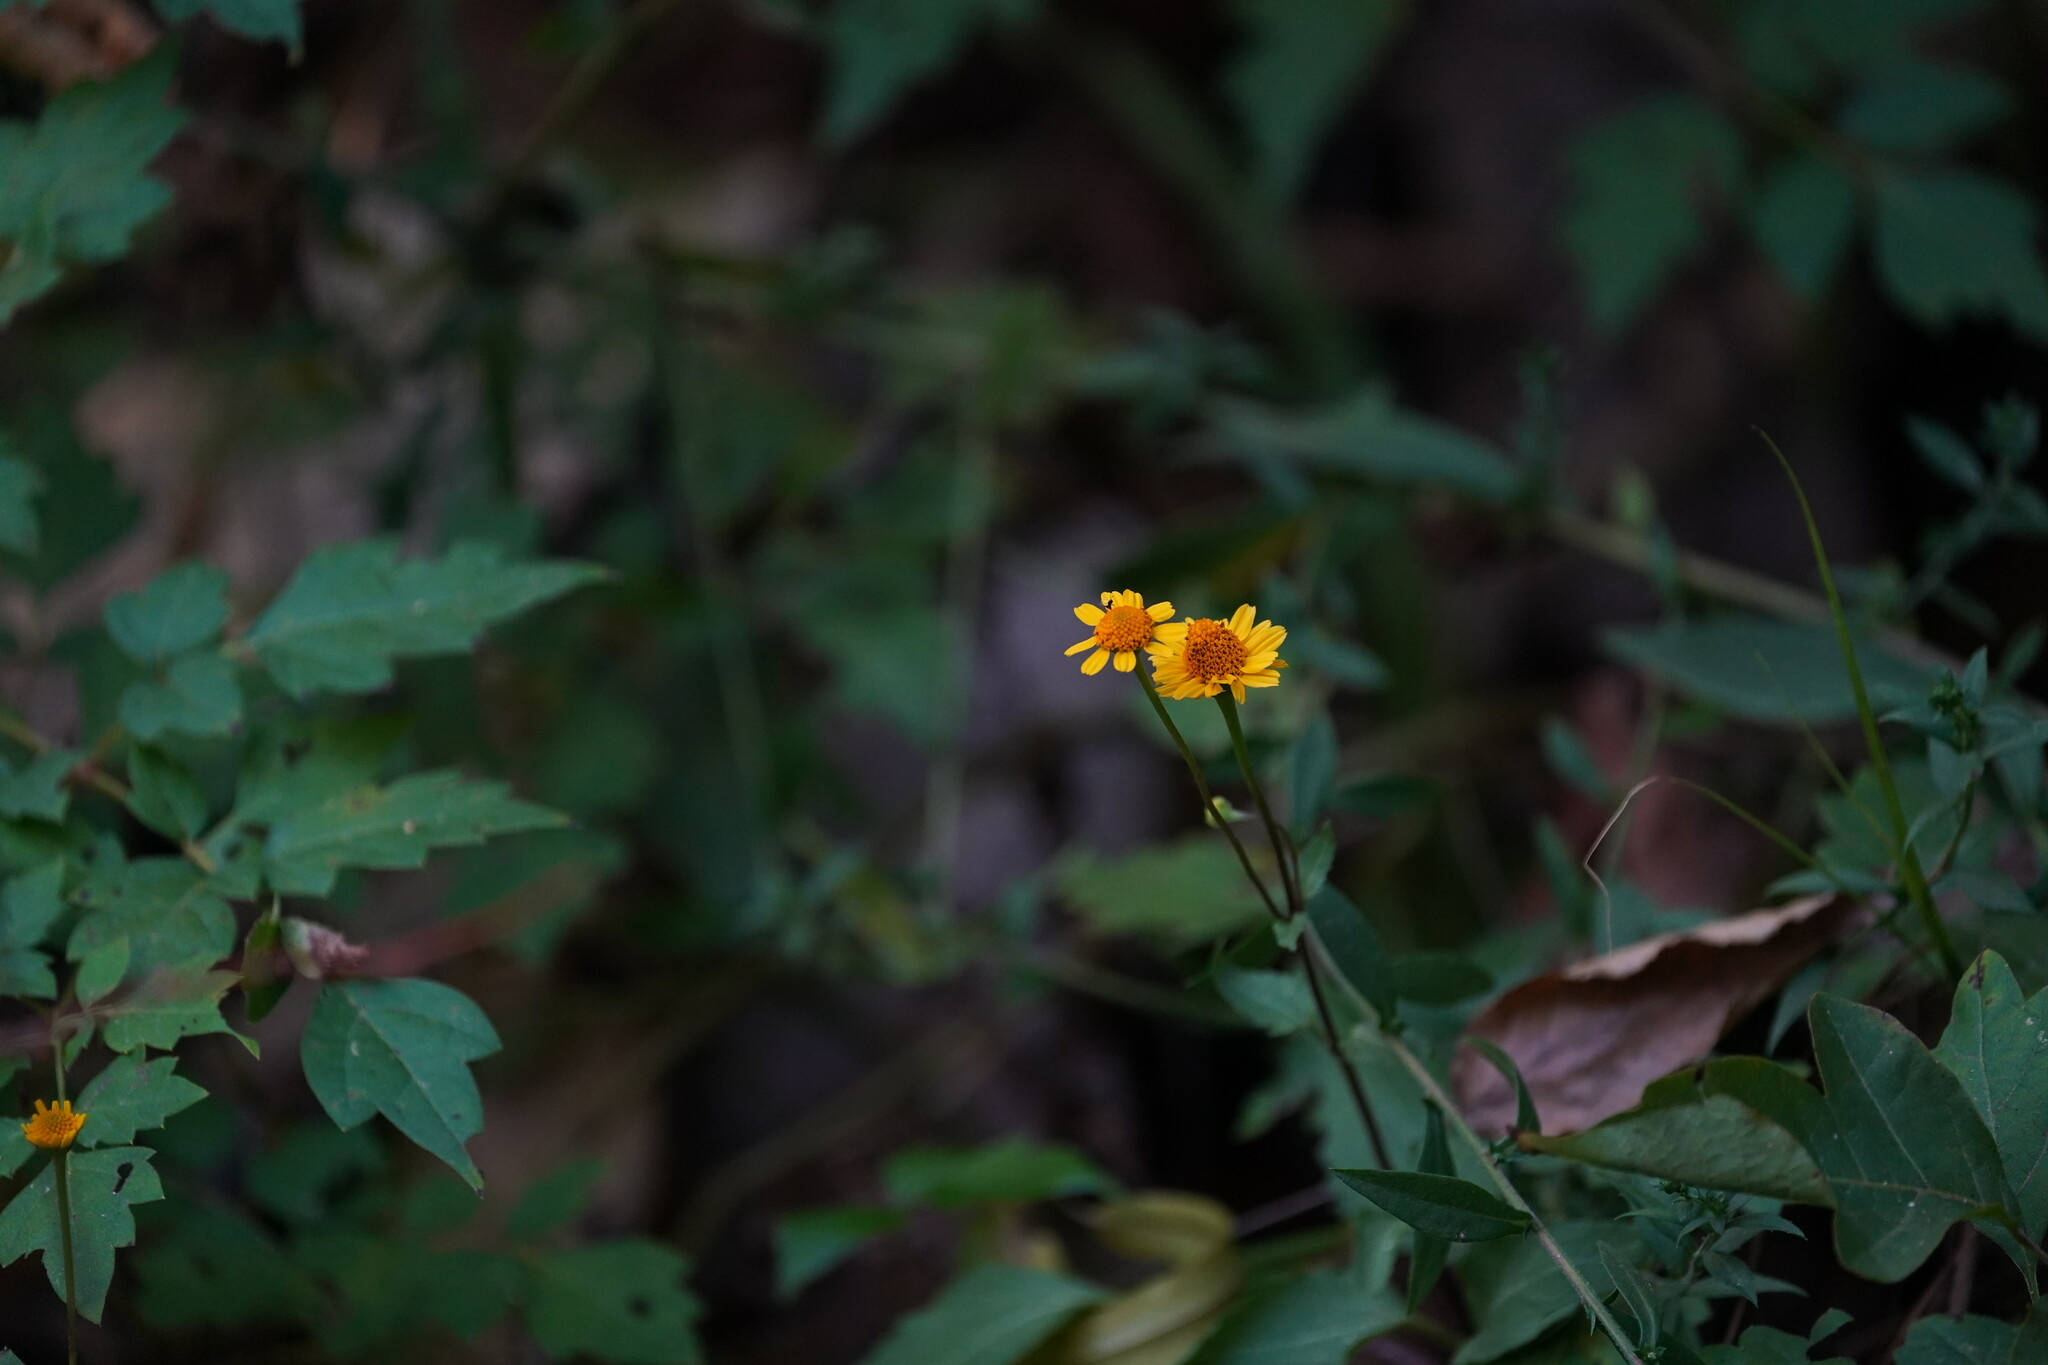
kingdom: Plantae
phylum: Tracheophyta
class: Magnoliopsida
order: Asterales
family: Asteraceae
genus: Acmella
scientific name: Acmella repens
